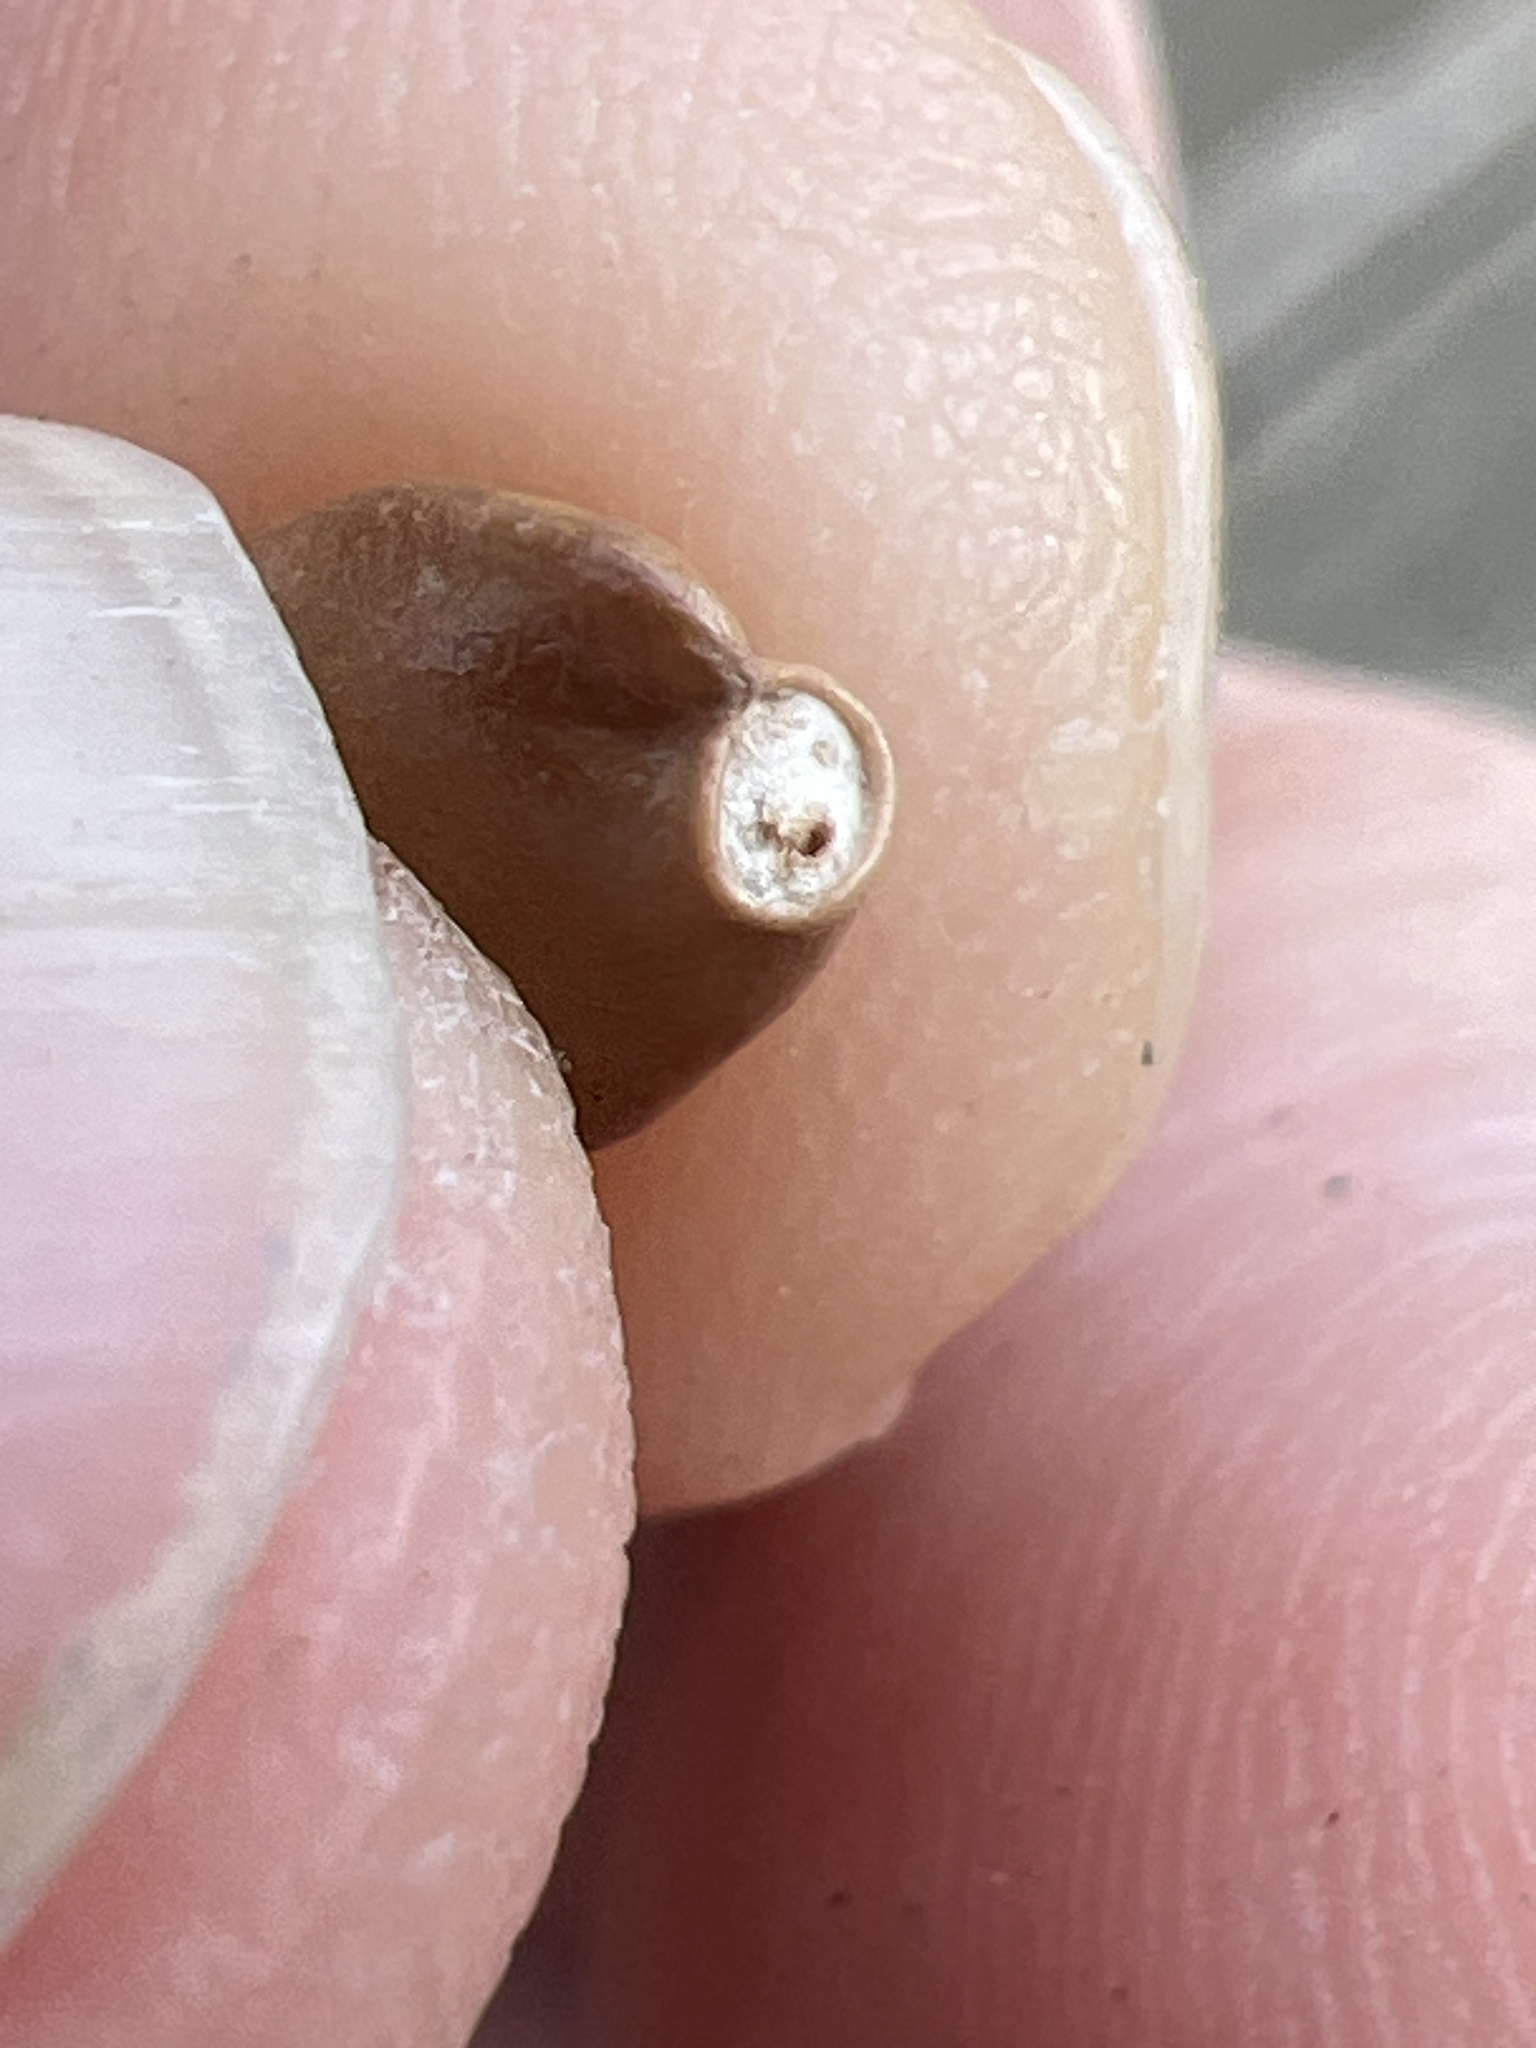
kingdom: Plantae
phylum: Tracheophyta
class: Magnoliopsida
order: Crossosomatales
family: Staphyleaceae
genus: Staphylea
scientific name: Staphylea trifolia
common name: American bladdernut
